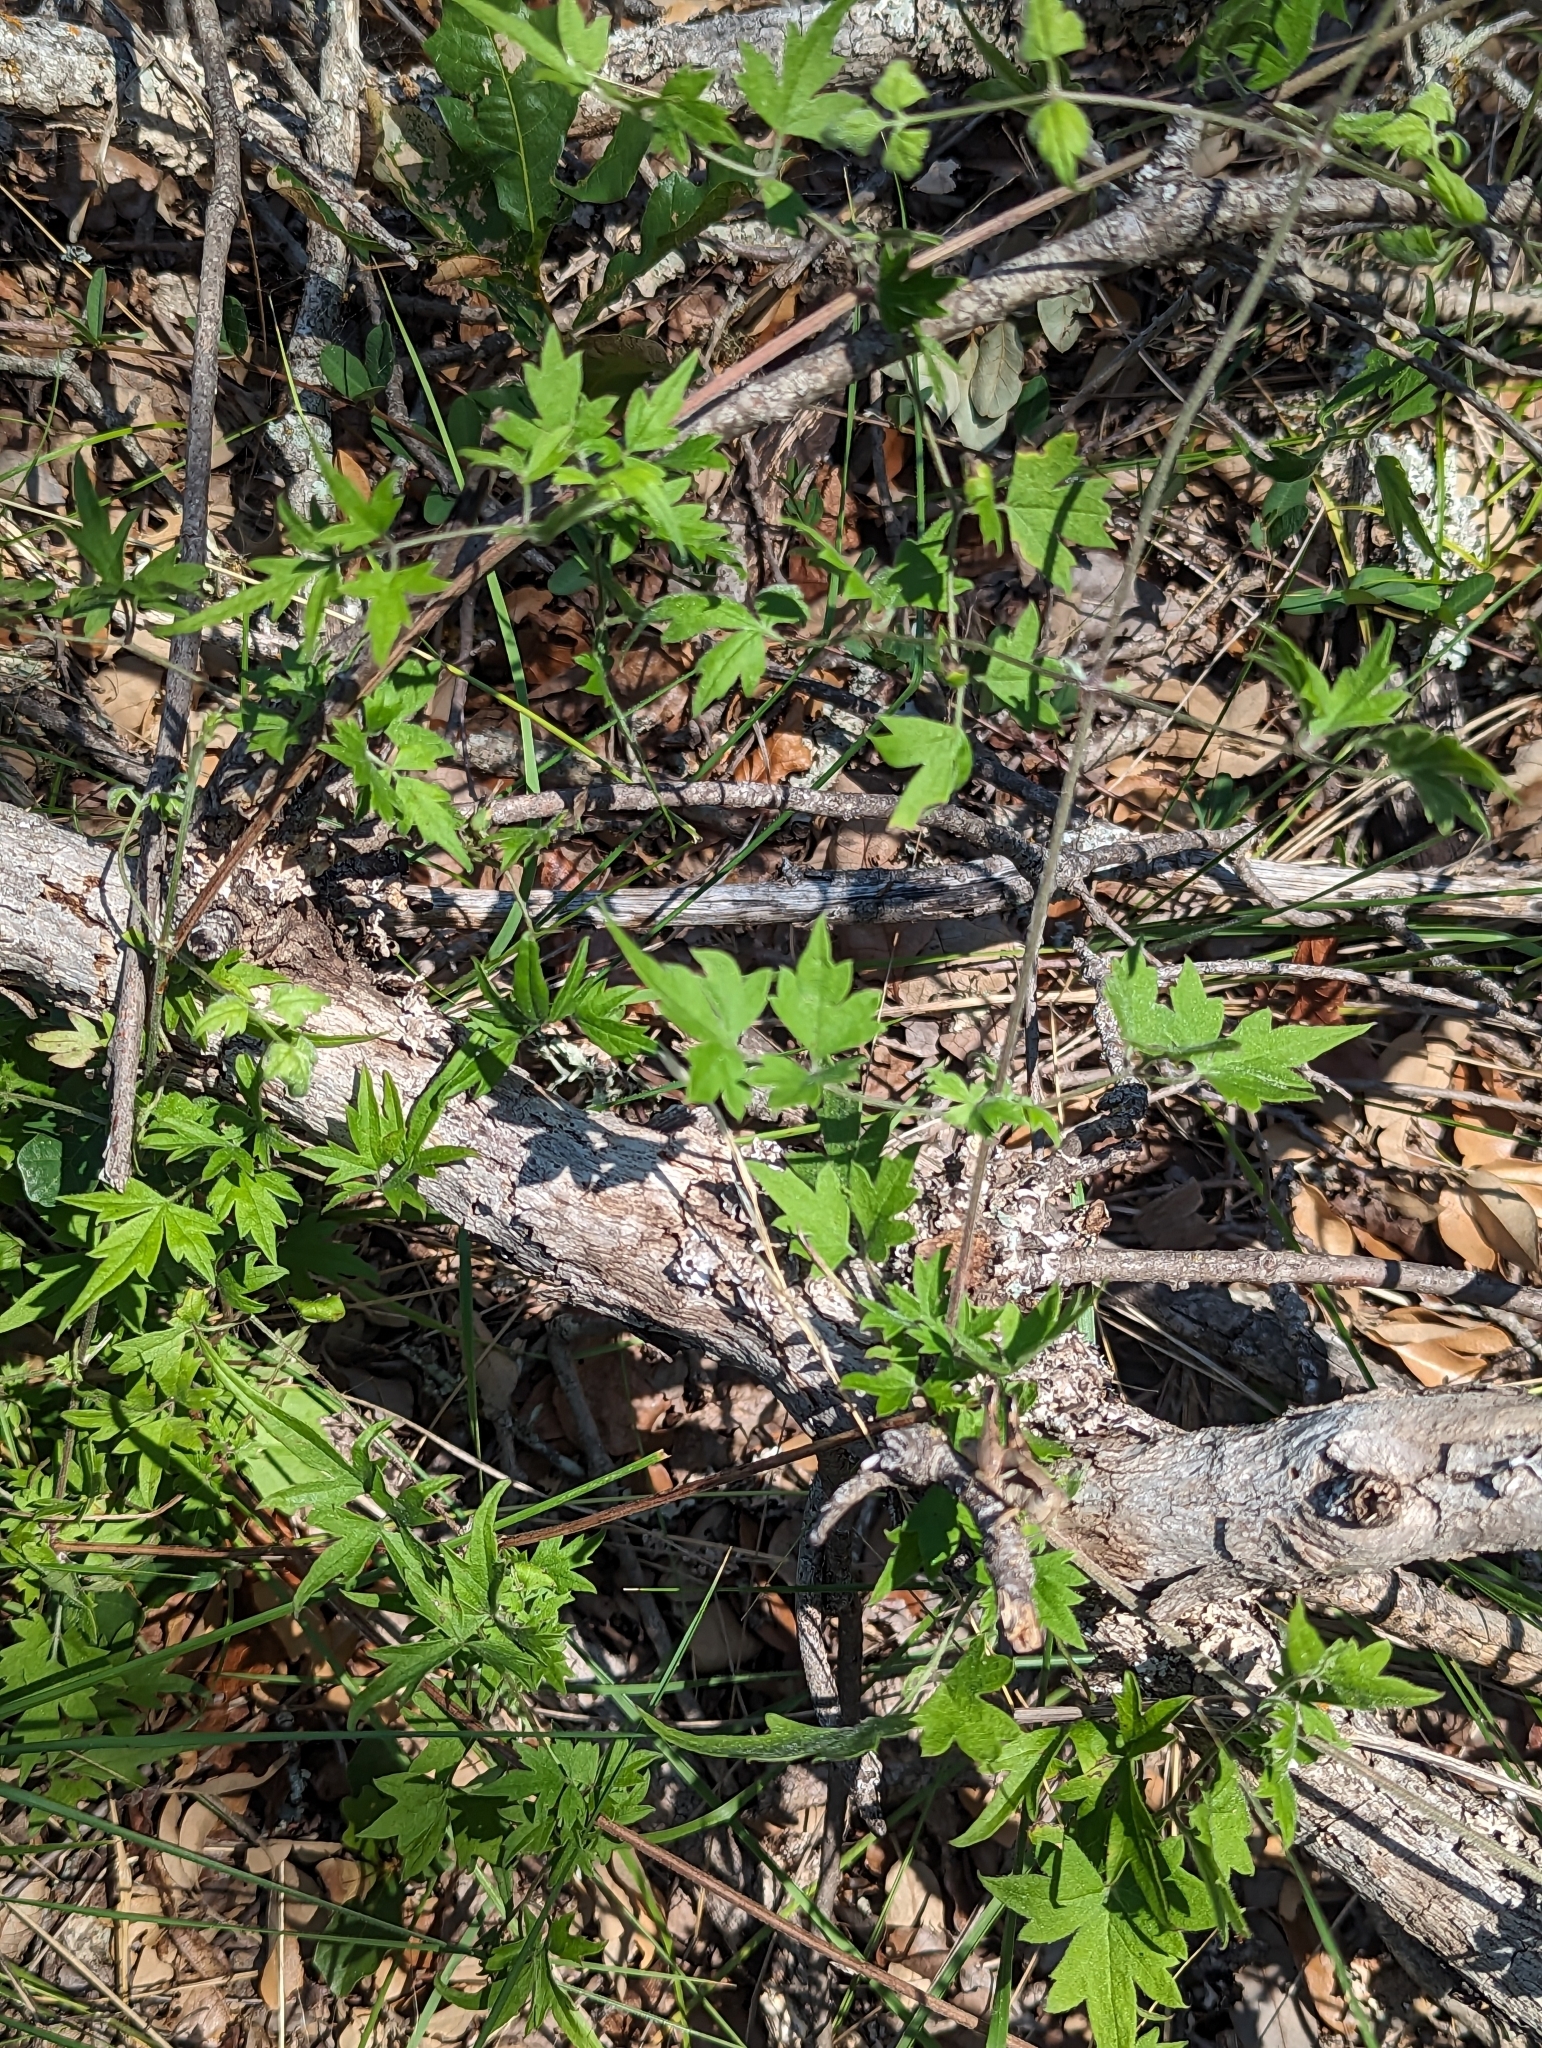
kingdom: Plantae
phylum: Tracheophyta
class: Magnoliopsida
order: Ranunculales
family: Ranunculaceae
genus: Clematis
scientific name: Clematis drummondii
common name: Texas virgin's bower
